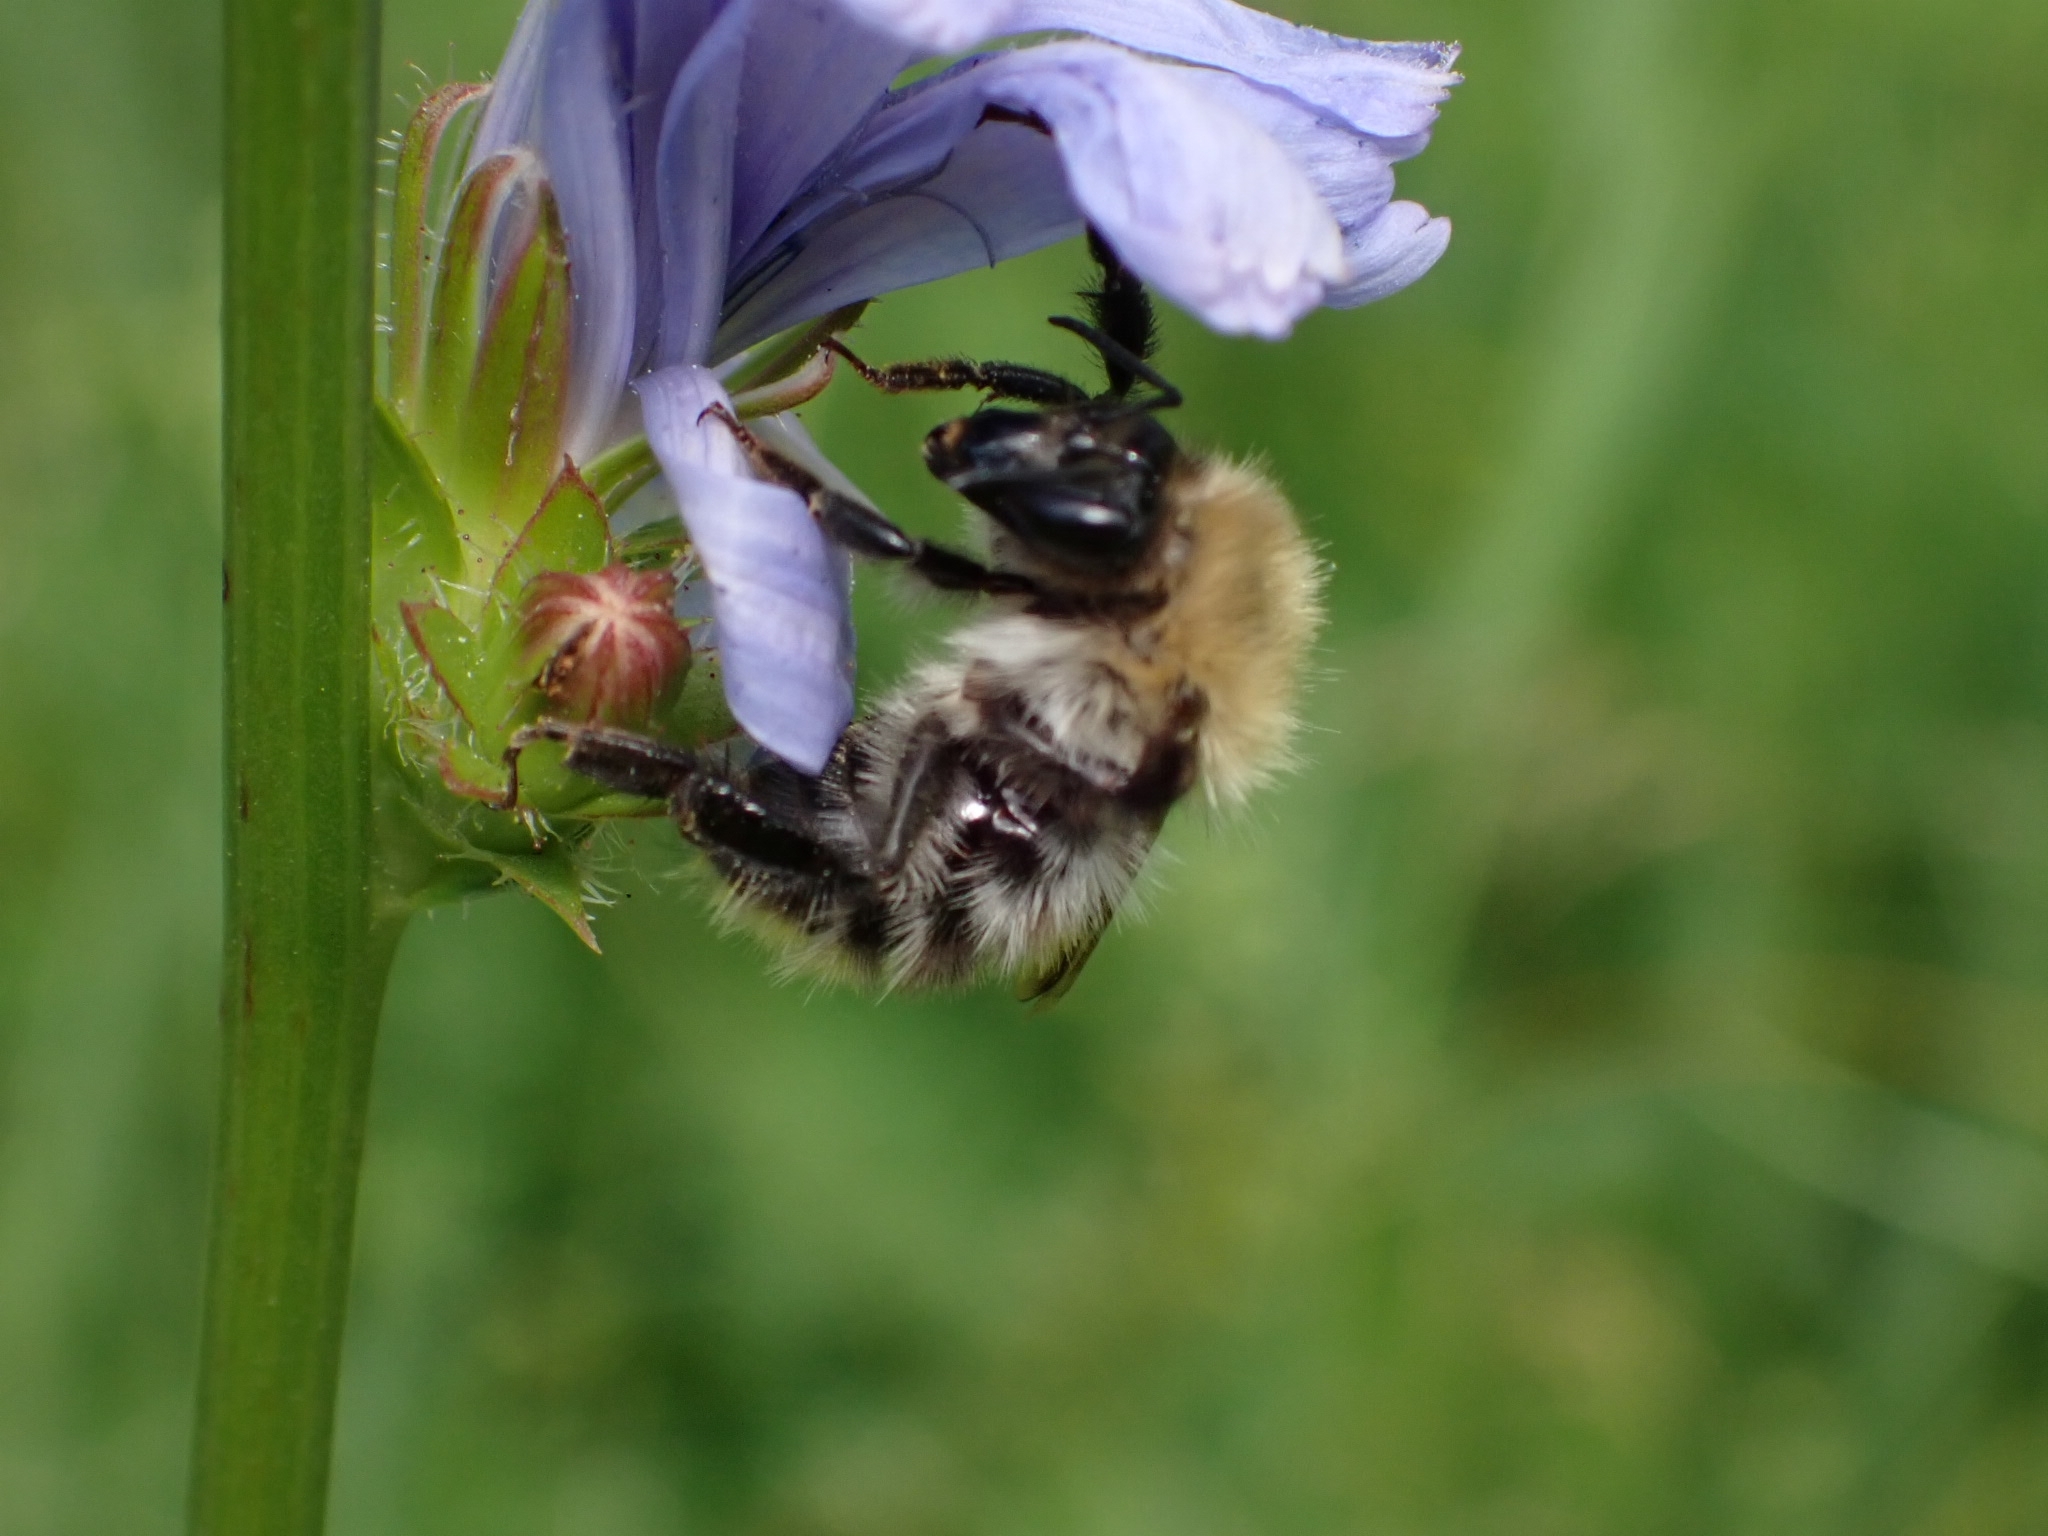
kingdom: Animalia
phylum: Arthropoda
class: Insecta
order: Hymenoptera
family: Apidae
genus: Bombus
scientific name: Bombus pascuorum
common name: Common carder bee
